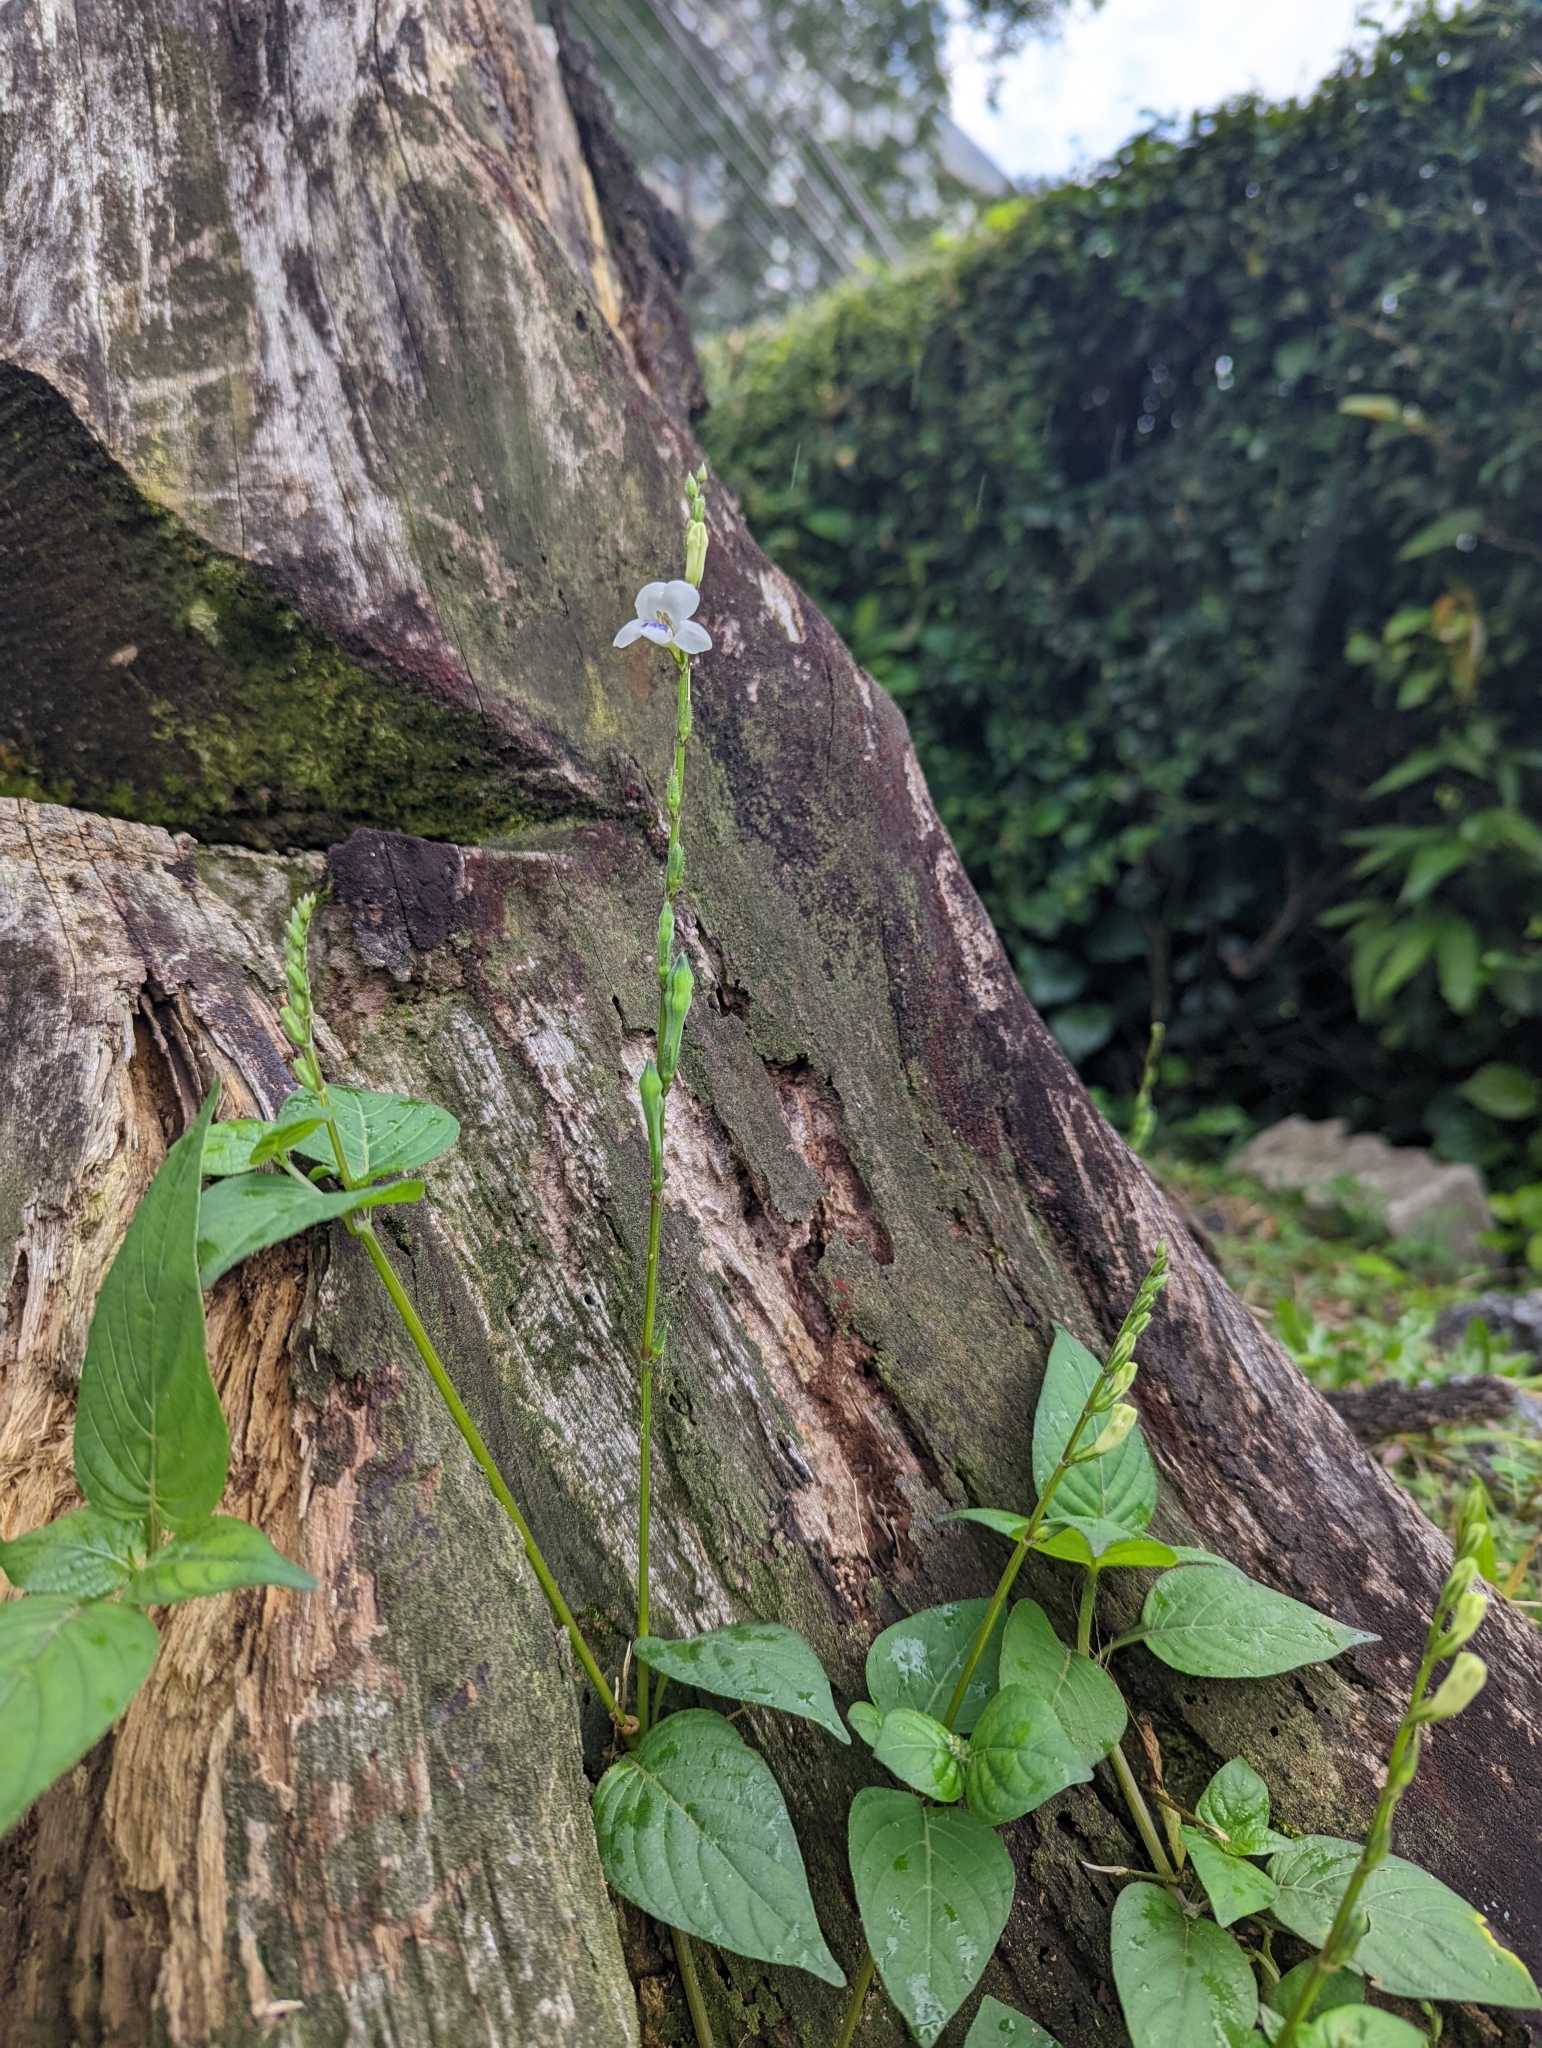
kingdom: Plantae
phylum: Tracheophyta
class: Magnoliopsida
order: Lamiales
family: Acanthaceae
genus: Asystasia
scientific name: Asystasia intrusa
